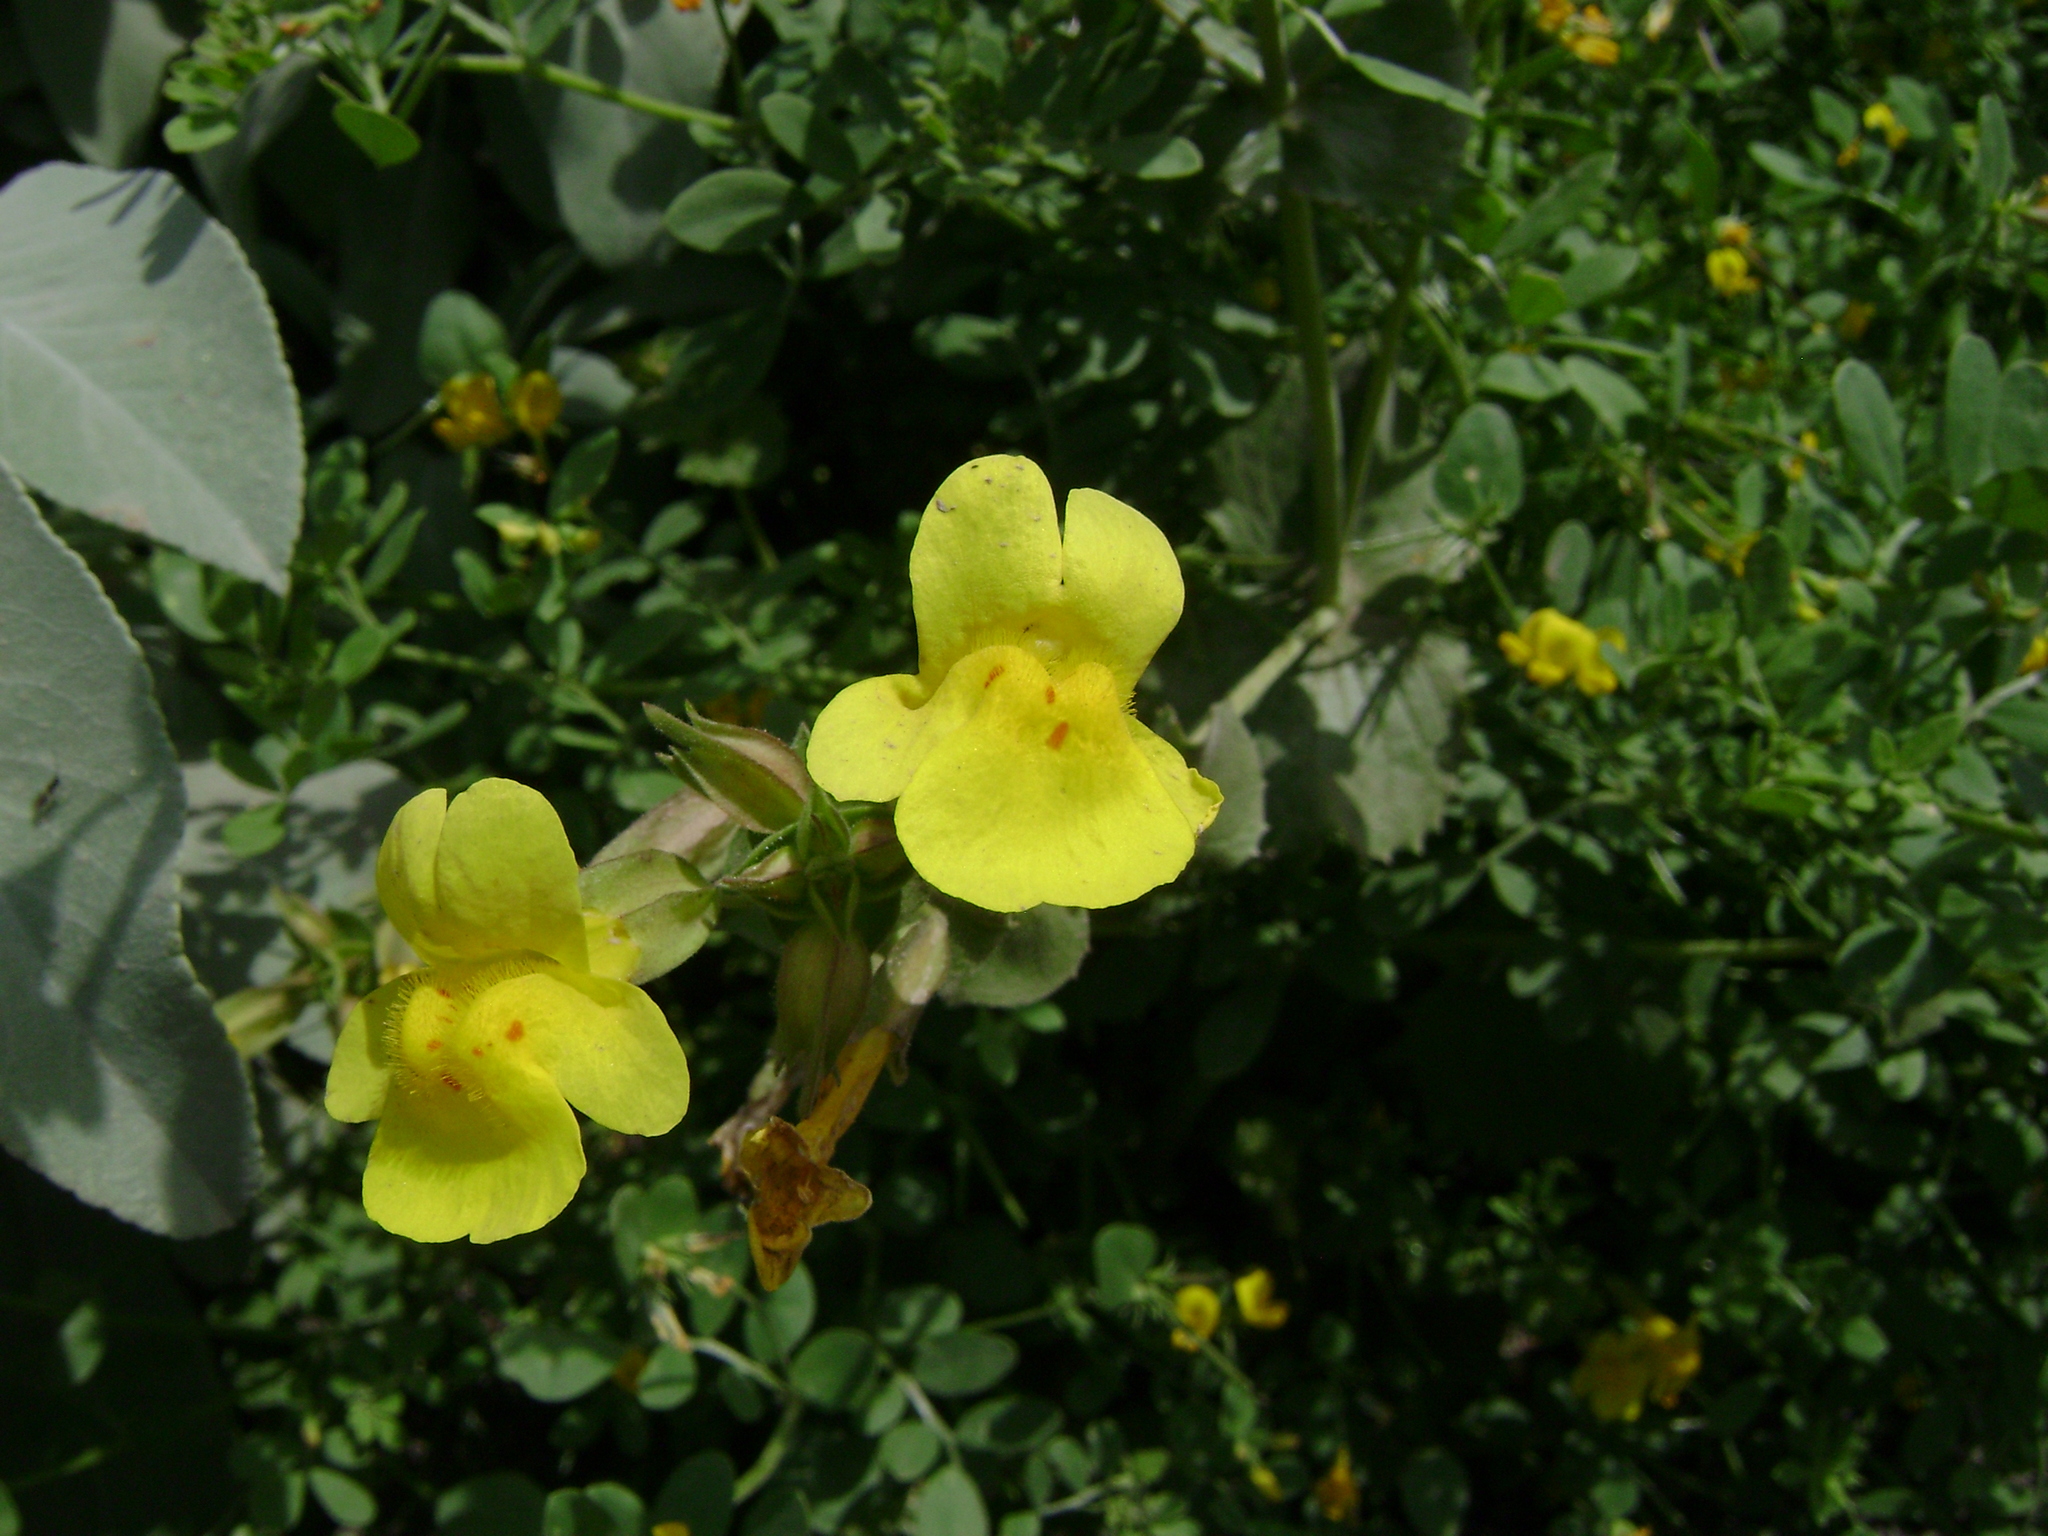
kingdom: Plantae
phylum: Tracheophyta
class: Magnoliopsida
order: Lamiales
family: Phrymaceae
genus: Erythranthe
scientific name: Erythranthe guttata
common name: Monkeyflower
